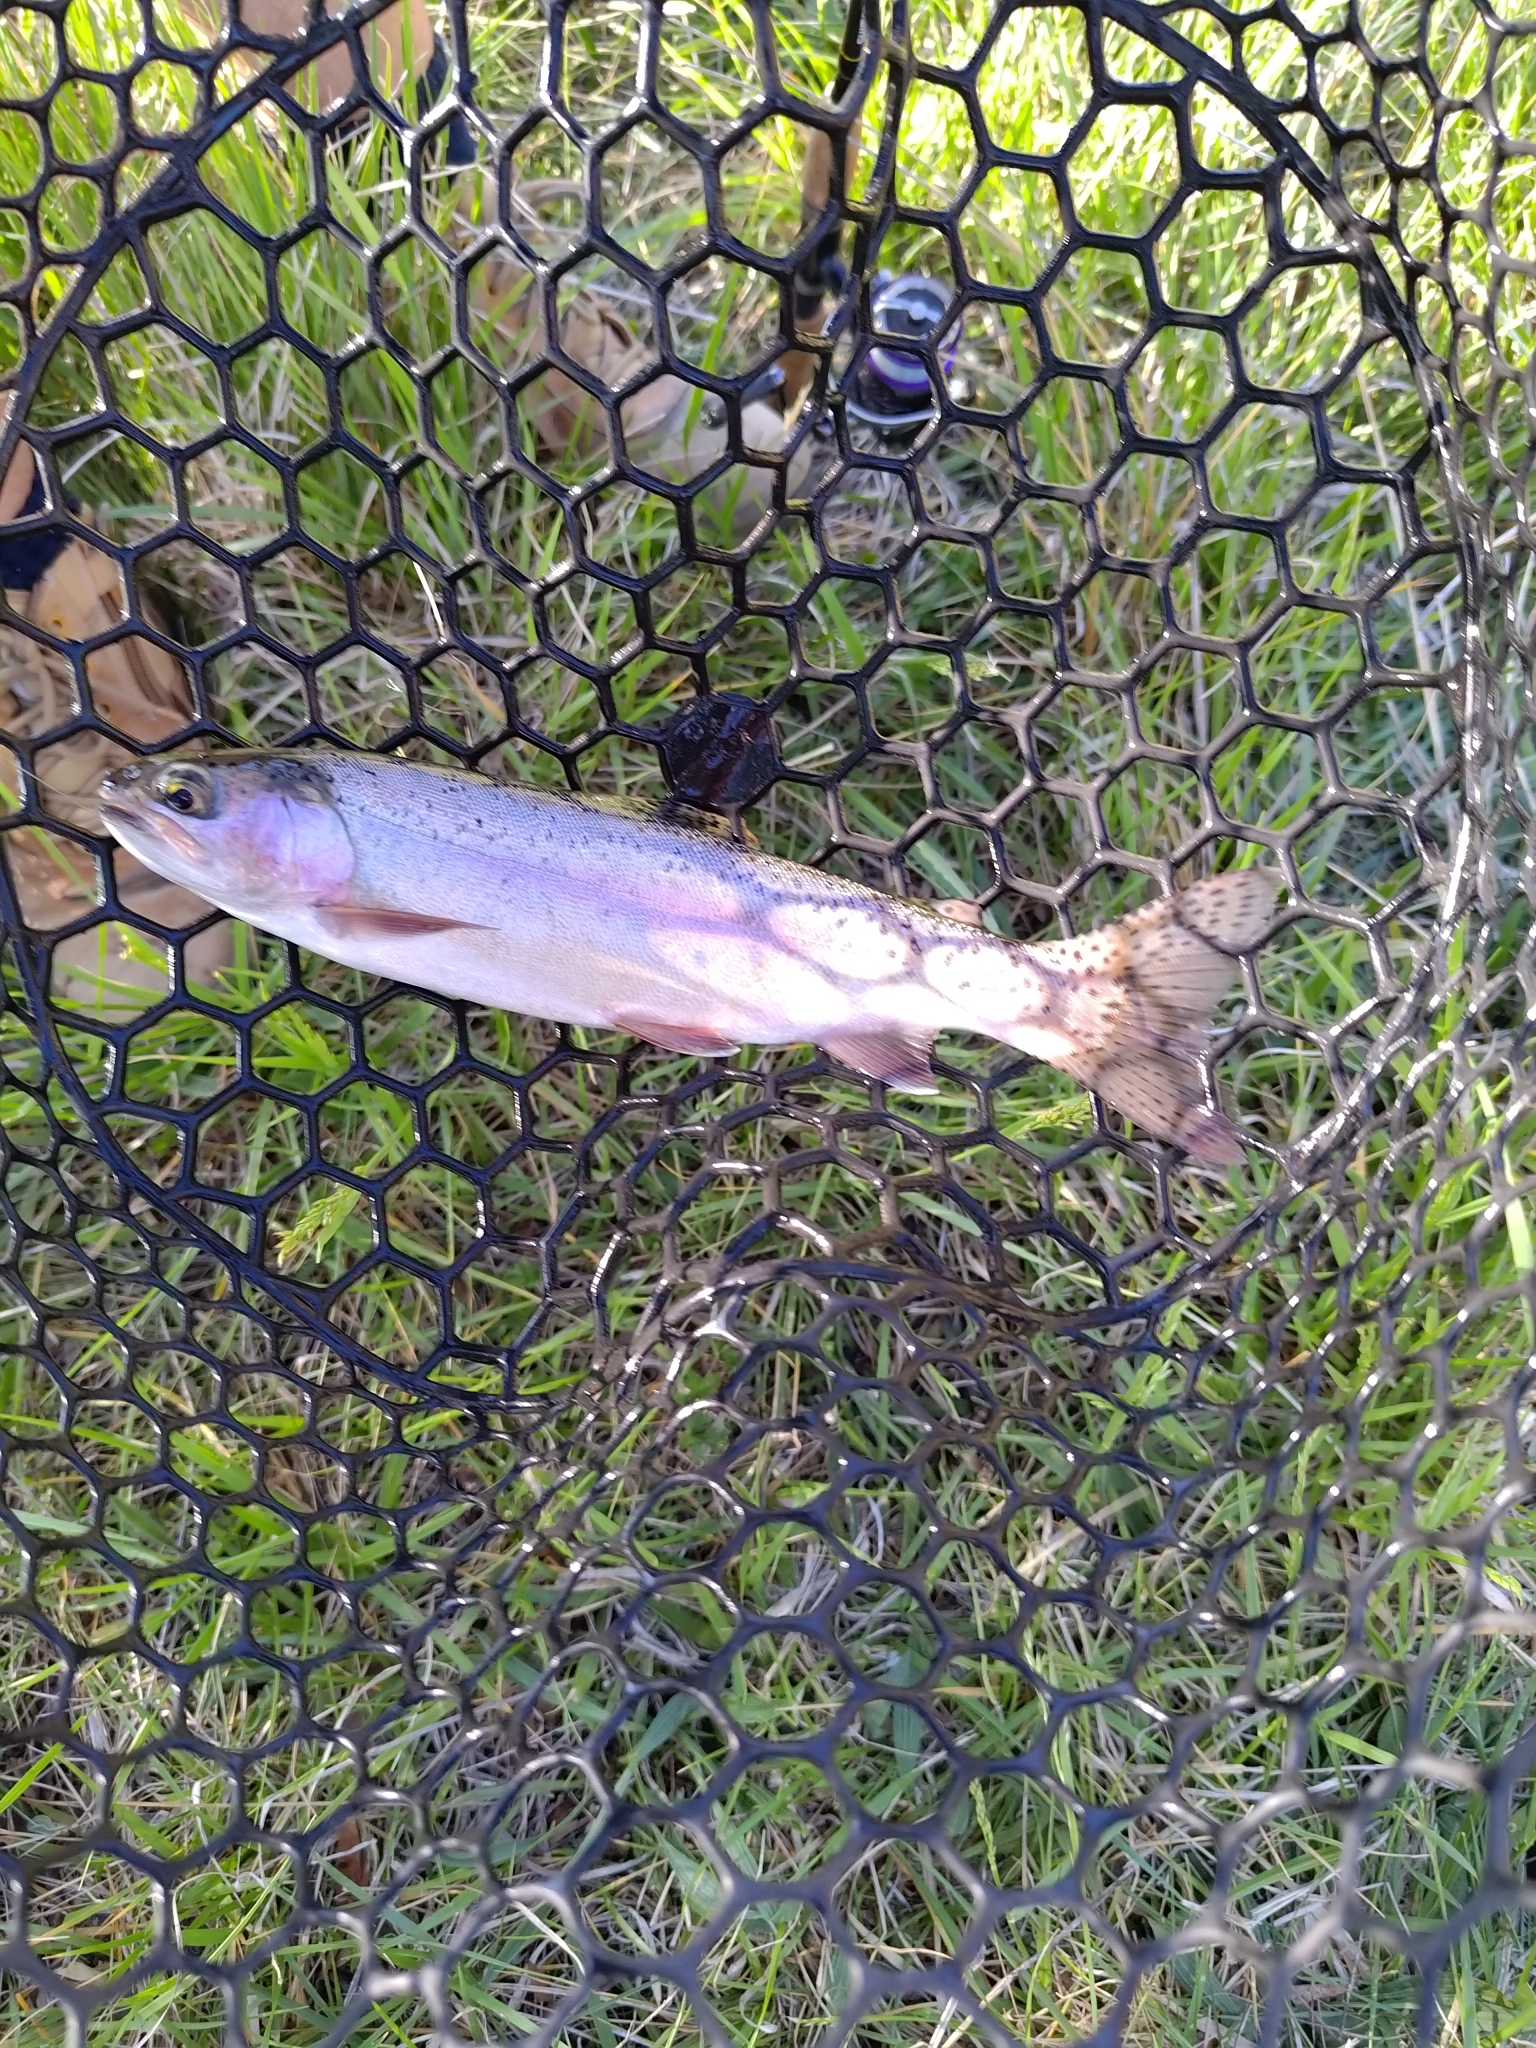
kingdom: Animalia
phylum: Chordata
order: Salmoniformes
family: Salmonidae
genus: Oncorhynchus
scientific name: Oncorhynchus mykiss
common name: Rainbow trout
